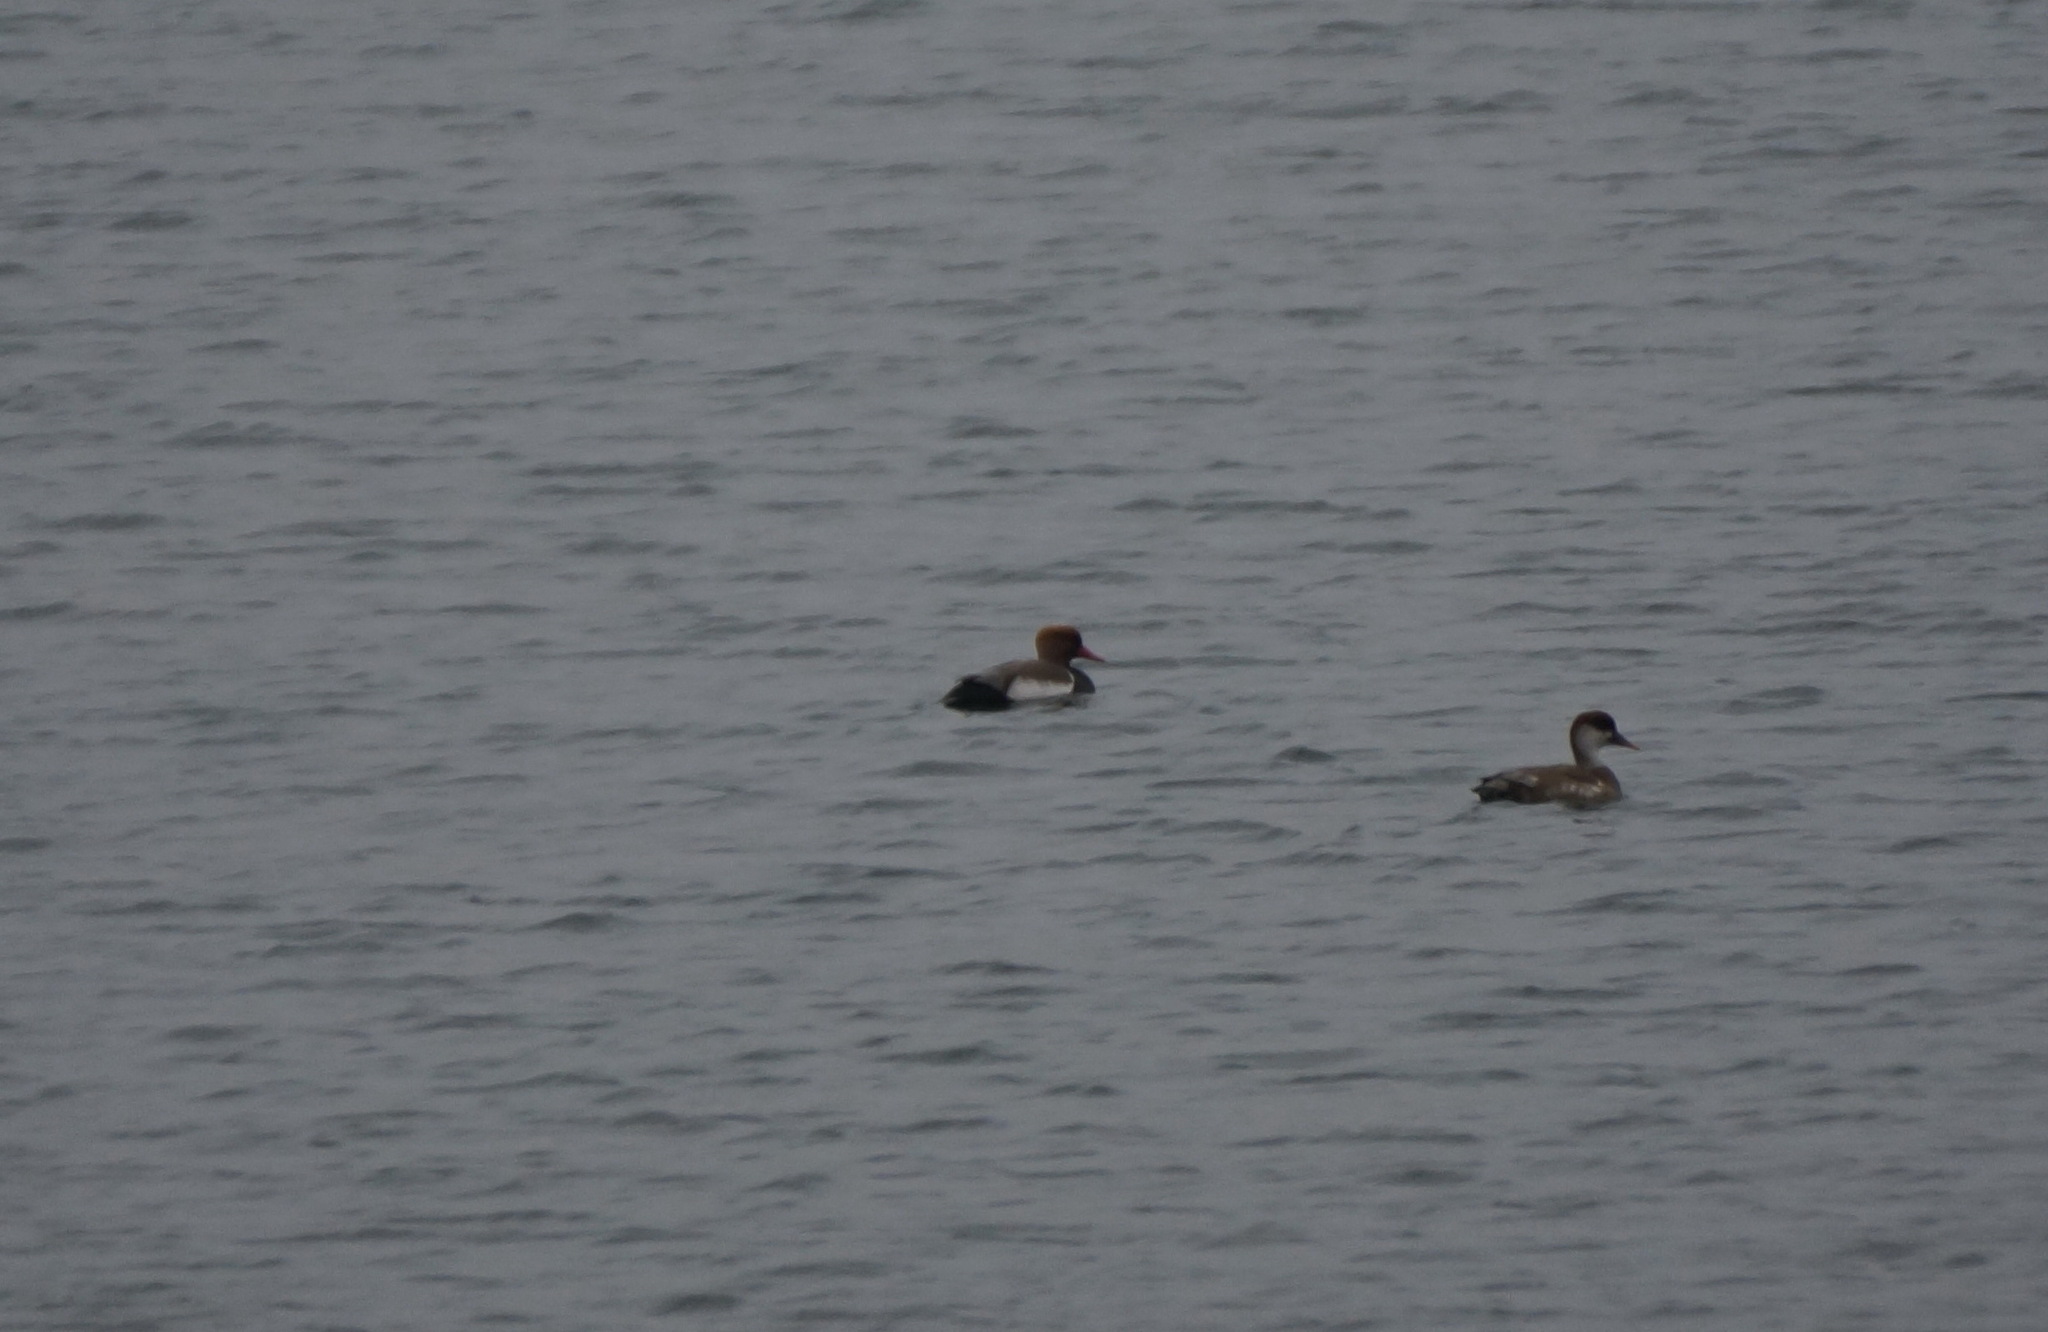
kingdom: Animalia
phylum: Chordata
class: Aves
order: Anseriformes
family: Anatidae
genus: Netta
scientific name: Netta rufina
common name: Red-crested pochard
